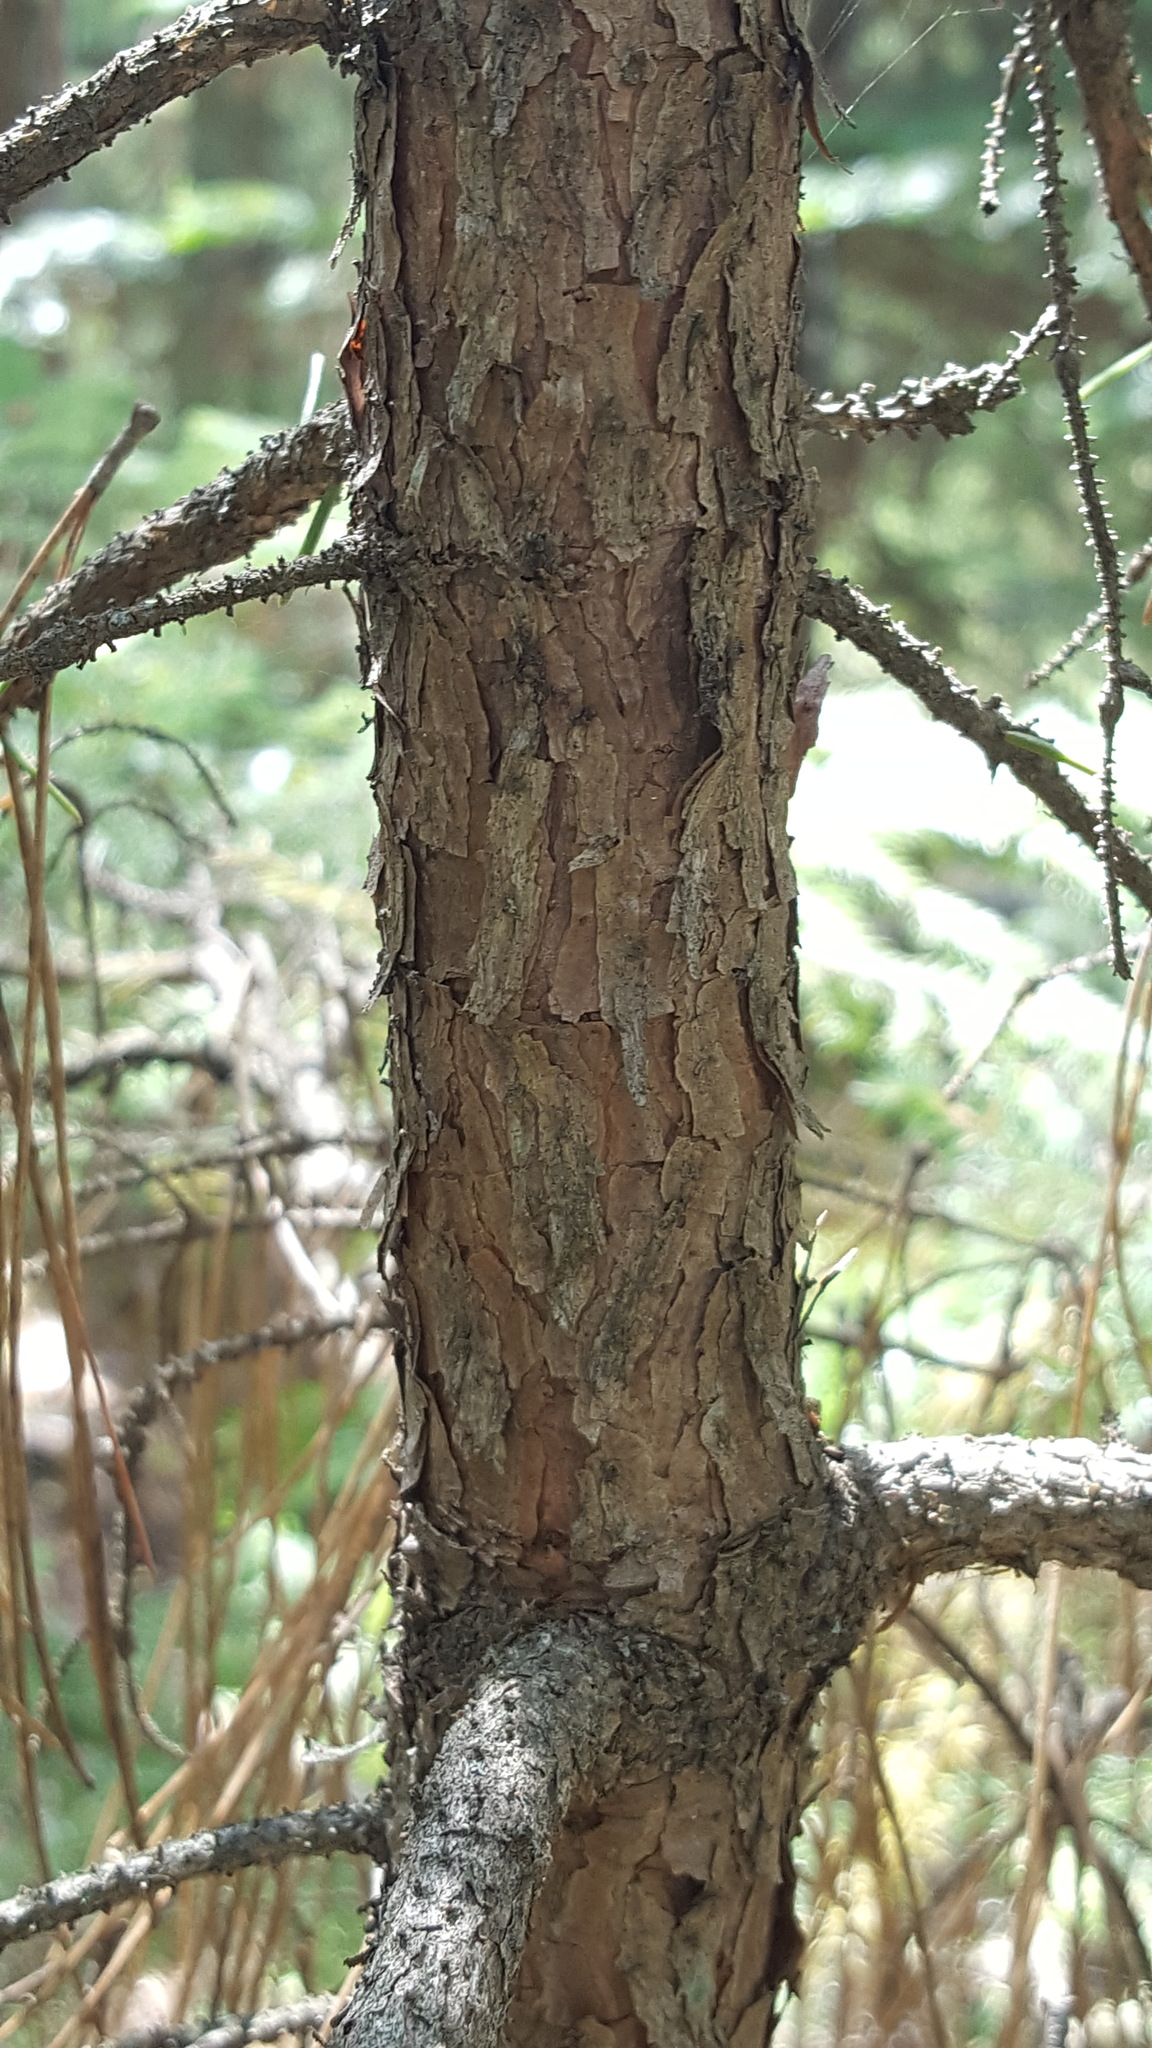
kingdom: Plantae
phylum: Tracheophyta
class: Pinopsida
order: Pinales
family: Pinaceae
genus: Picea
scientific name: Picea glauca
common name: White spruce
